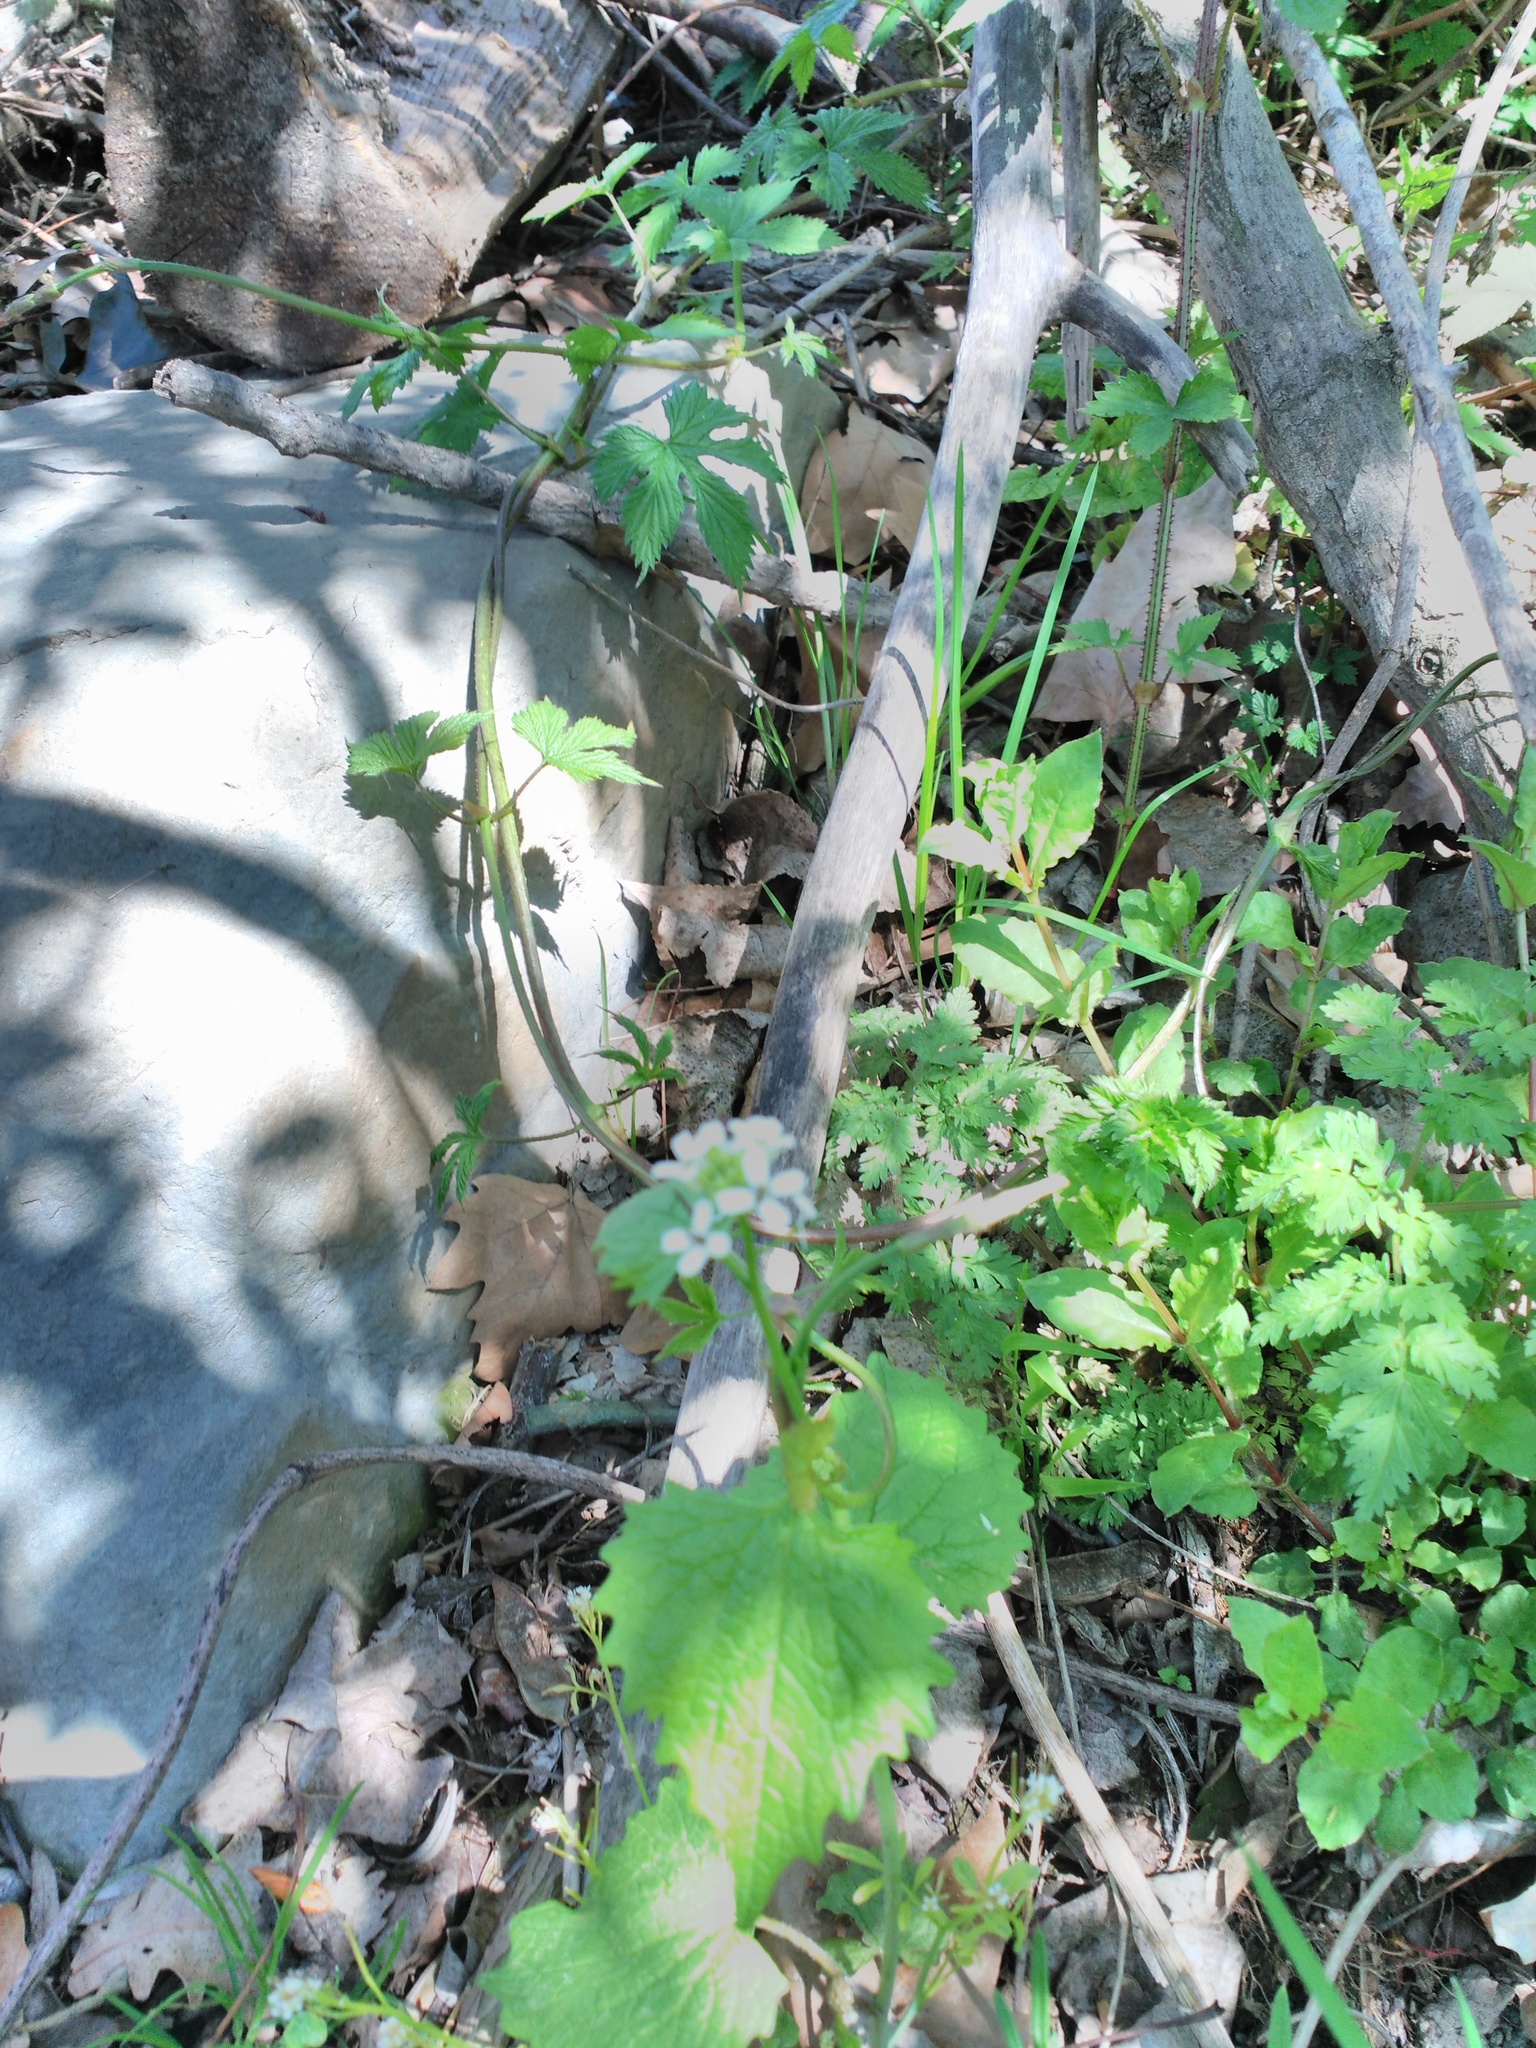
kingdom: Plantae
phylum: Tracheophyta
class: Magnoliopsida
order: Brassicales
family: Brassicaceae
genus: Alliaria
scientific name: Alliaria petiolata
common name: Garlic mustard
